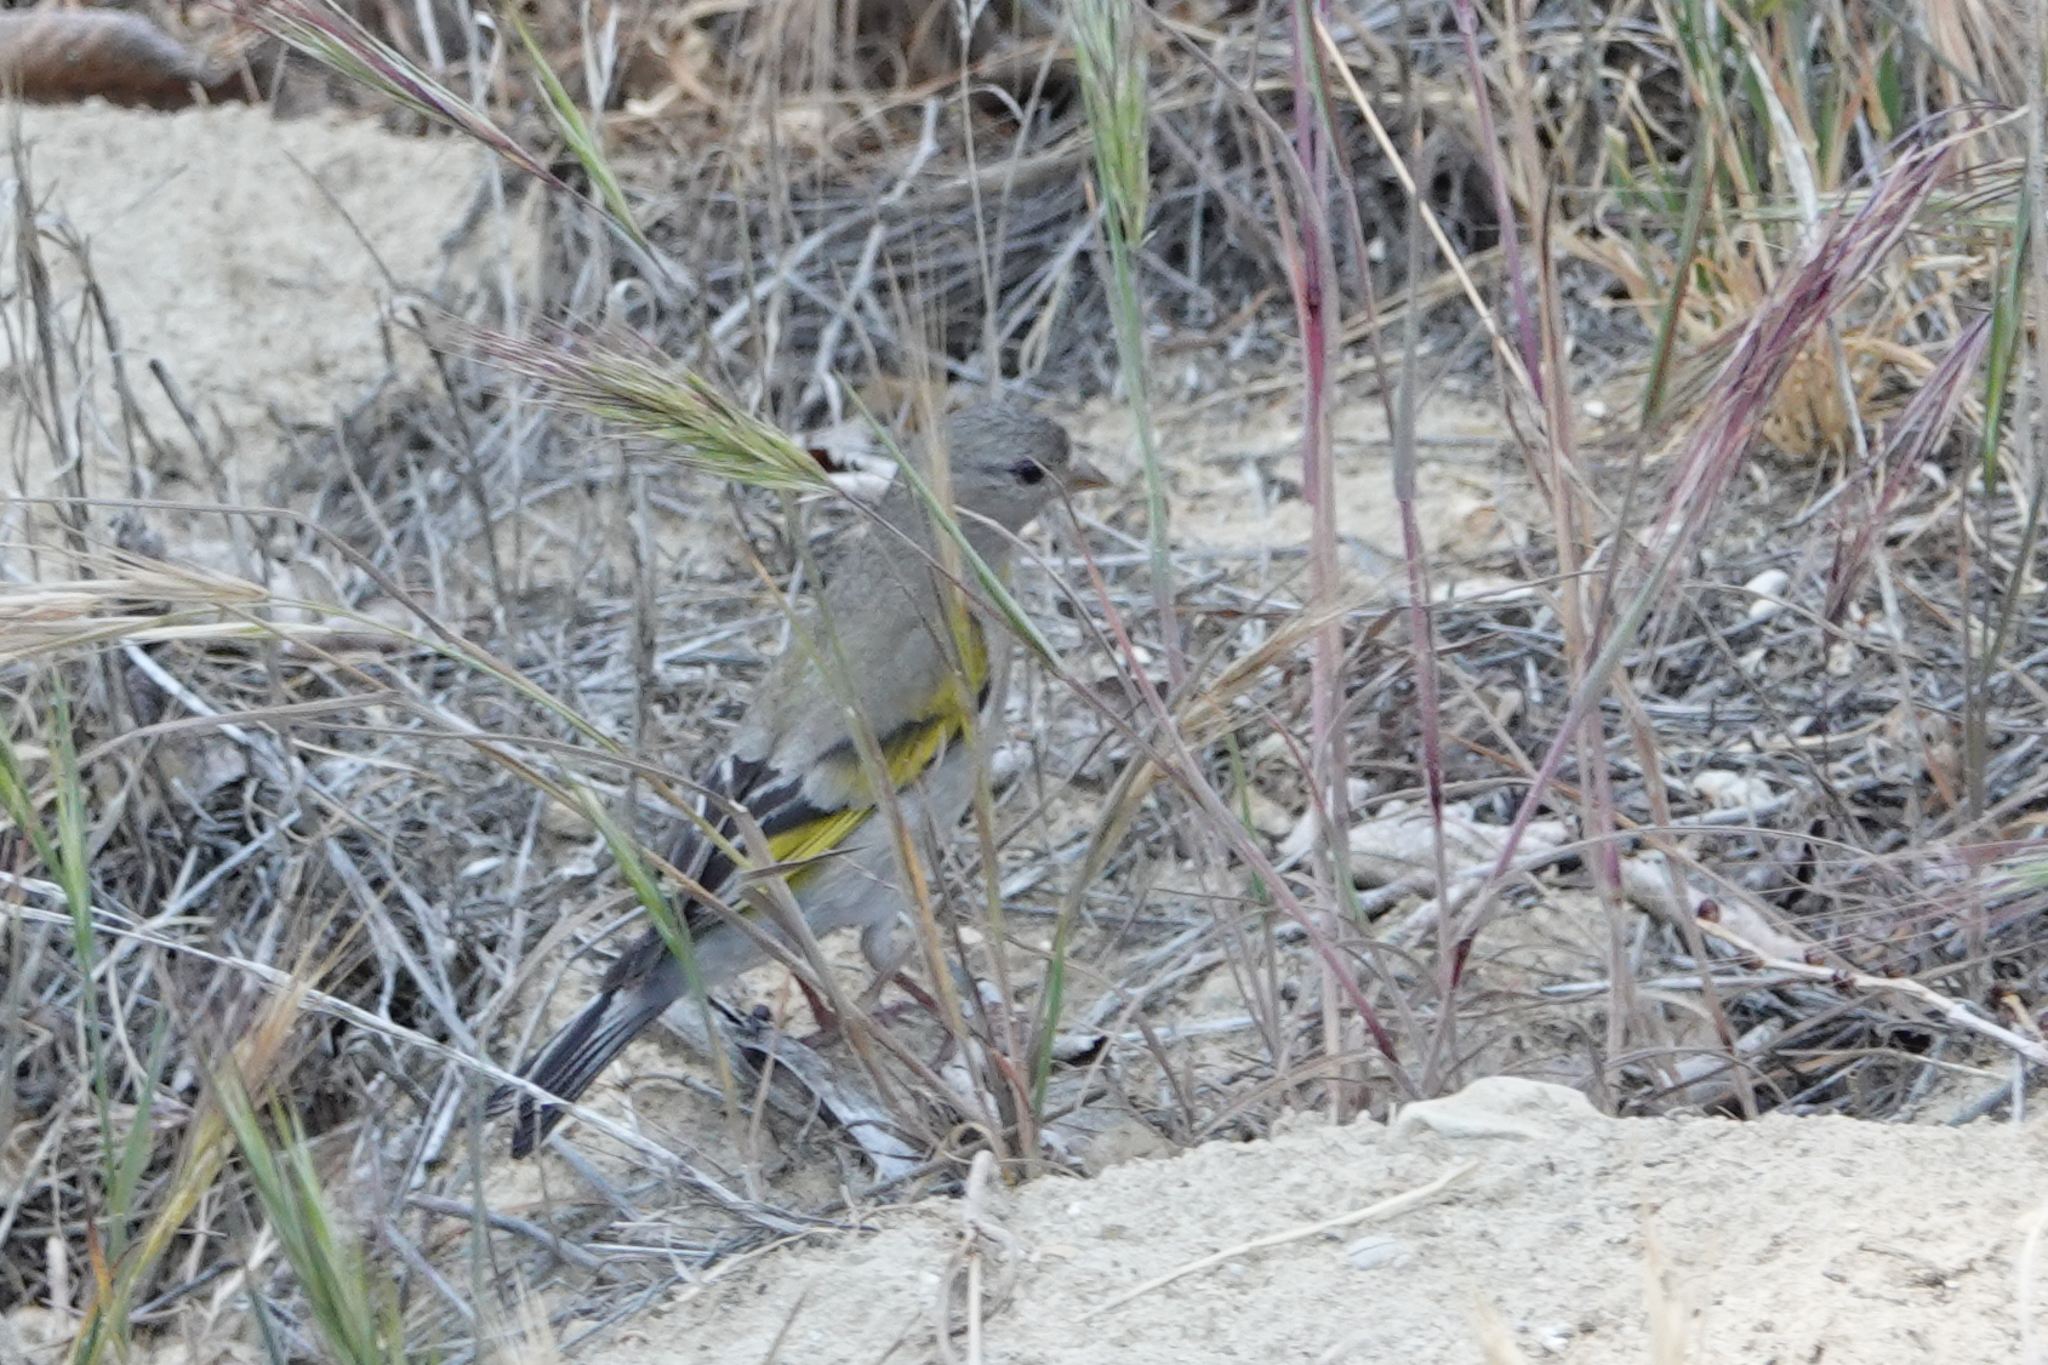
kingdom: Animalia
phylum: Chordata
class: Aves
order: Passeriformes
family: Fringillidae
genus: Spinus
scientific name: Spinus lawrencei
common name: Lawrence's goldfinch
